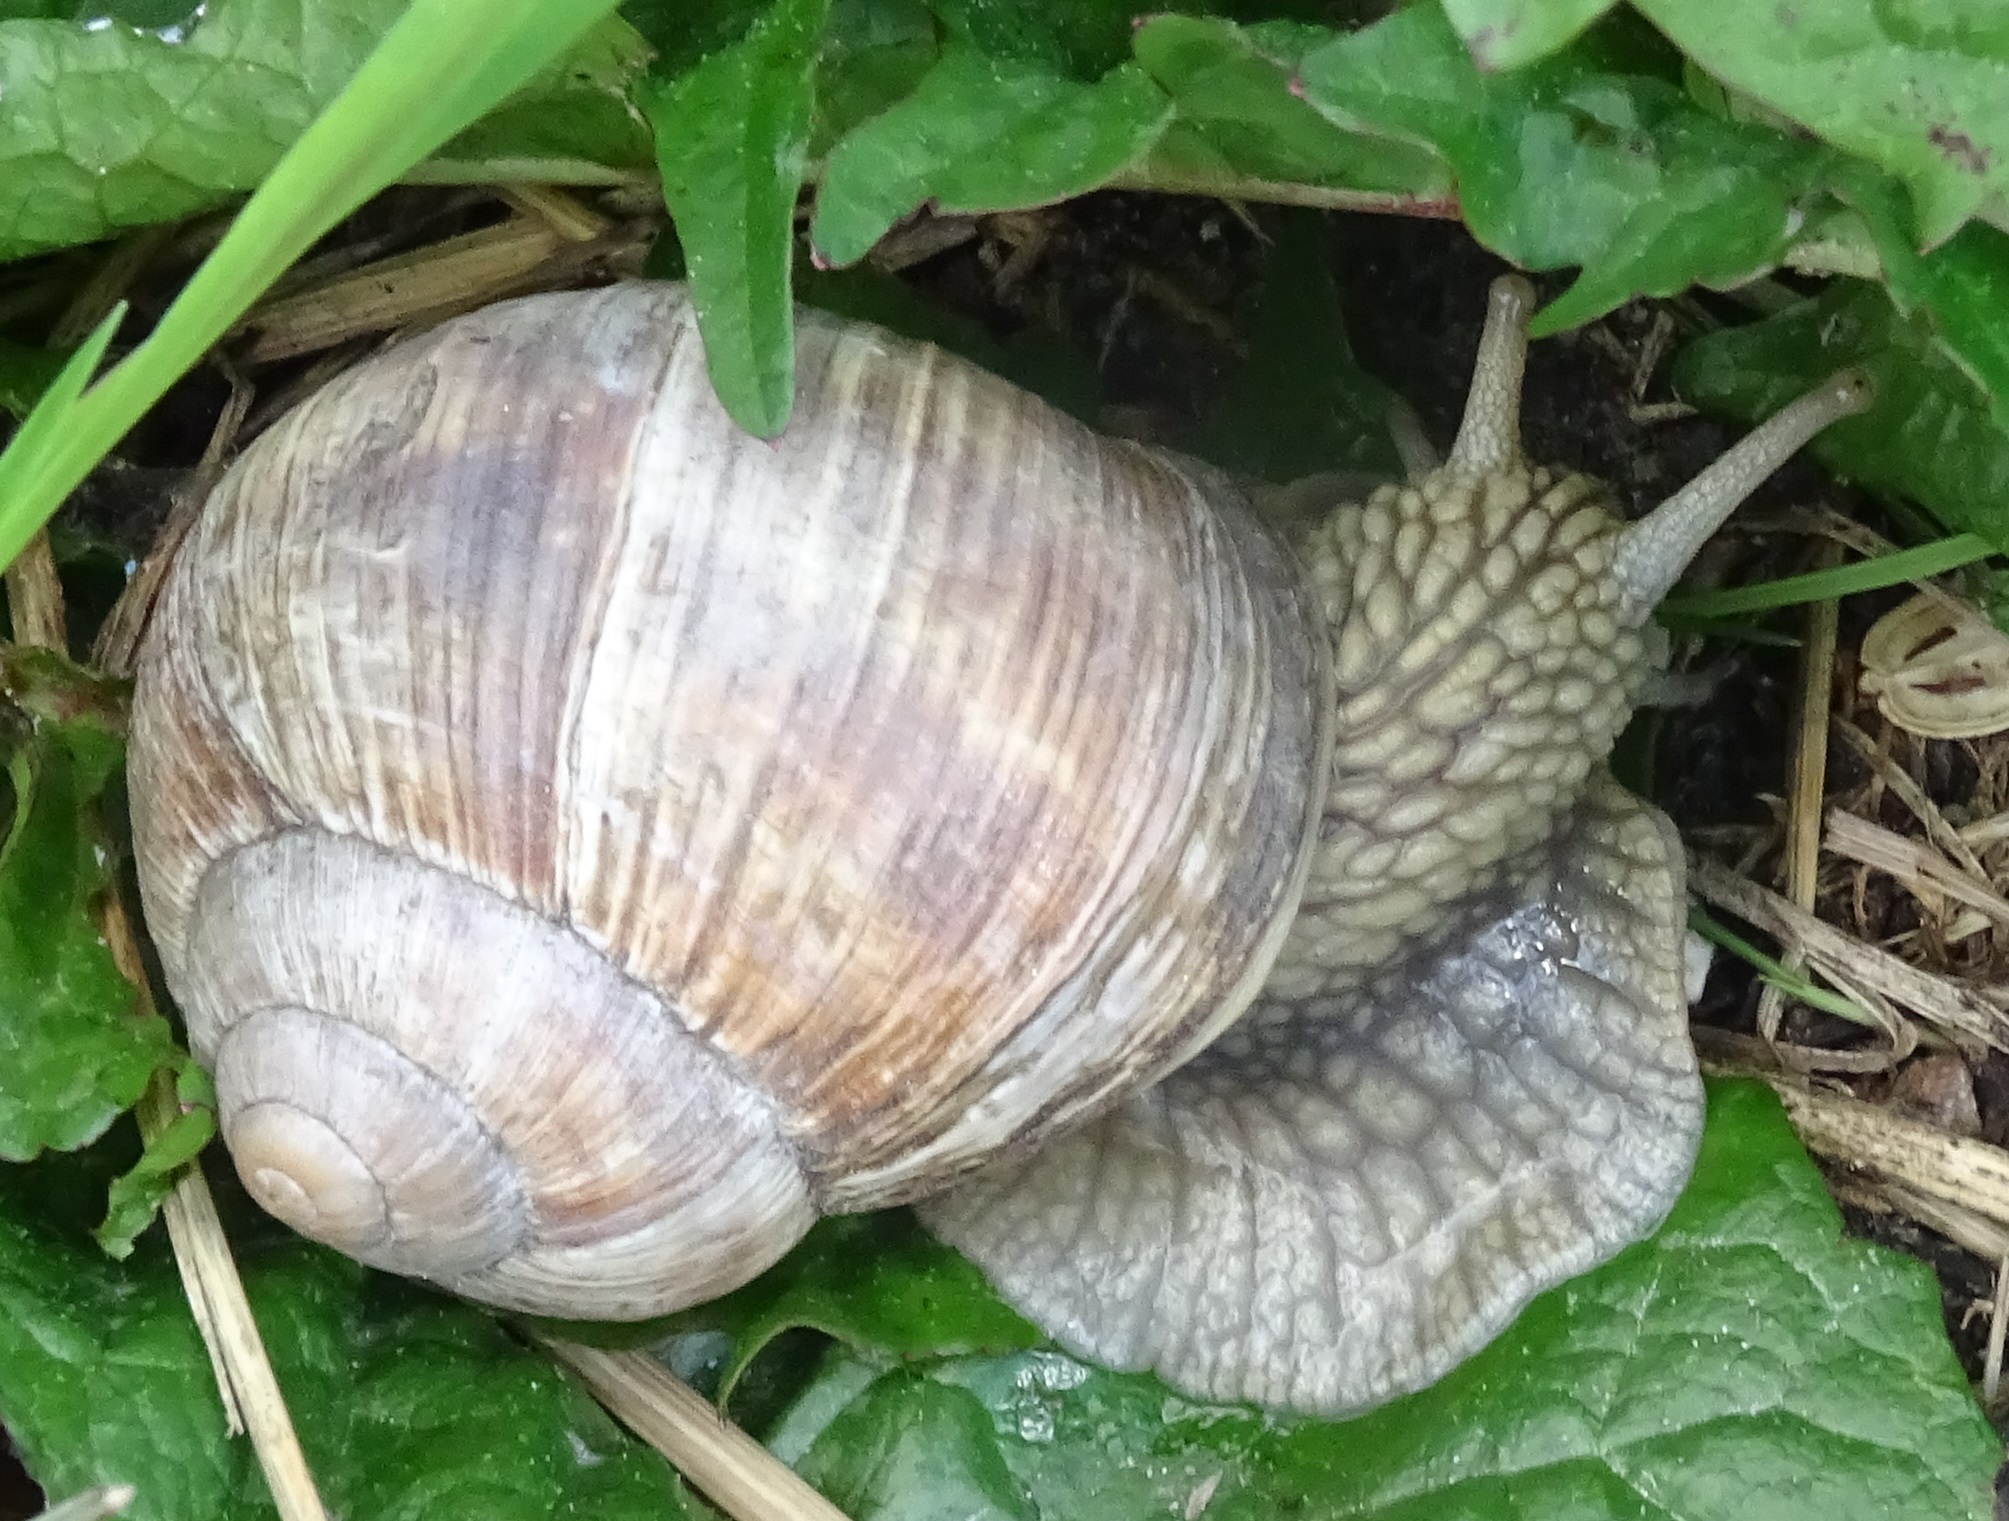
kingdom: Animalia
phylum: Mollusca
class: Gastropoda
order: Stylommatophora
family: Helicidae
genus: Helix
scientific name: Helix pomatia
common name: Roman snail
